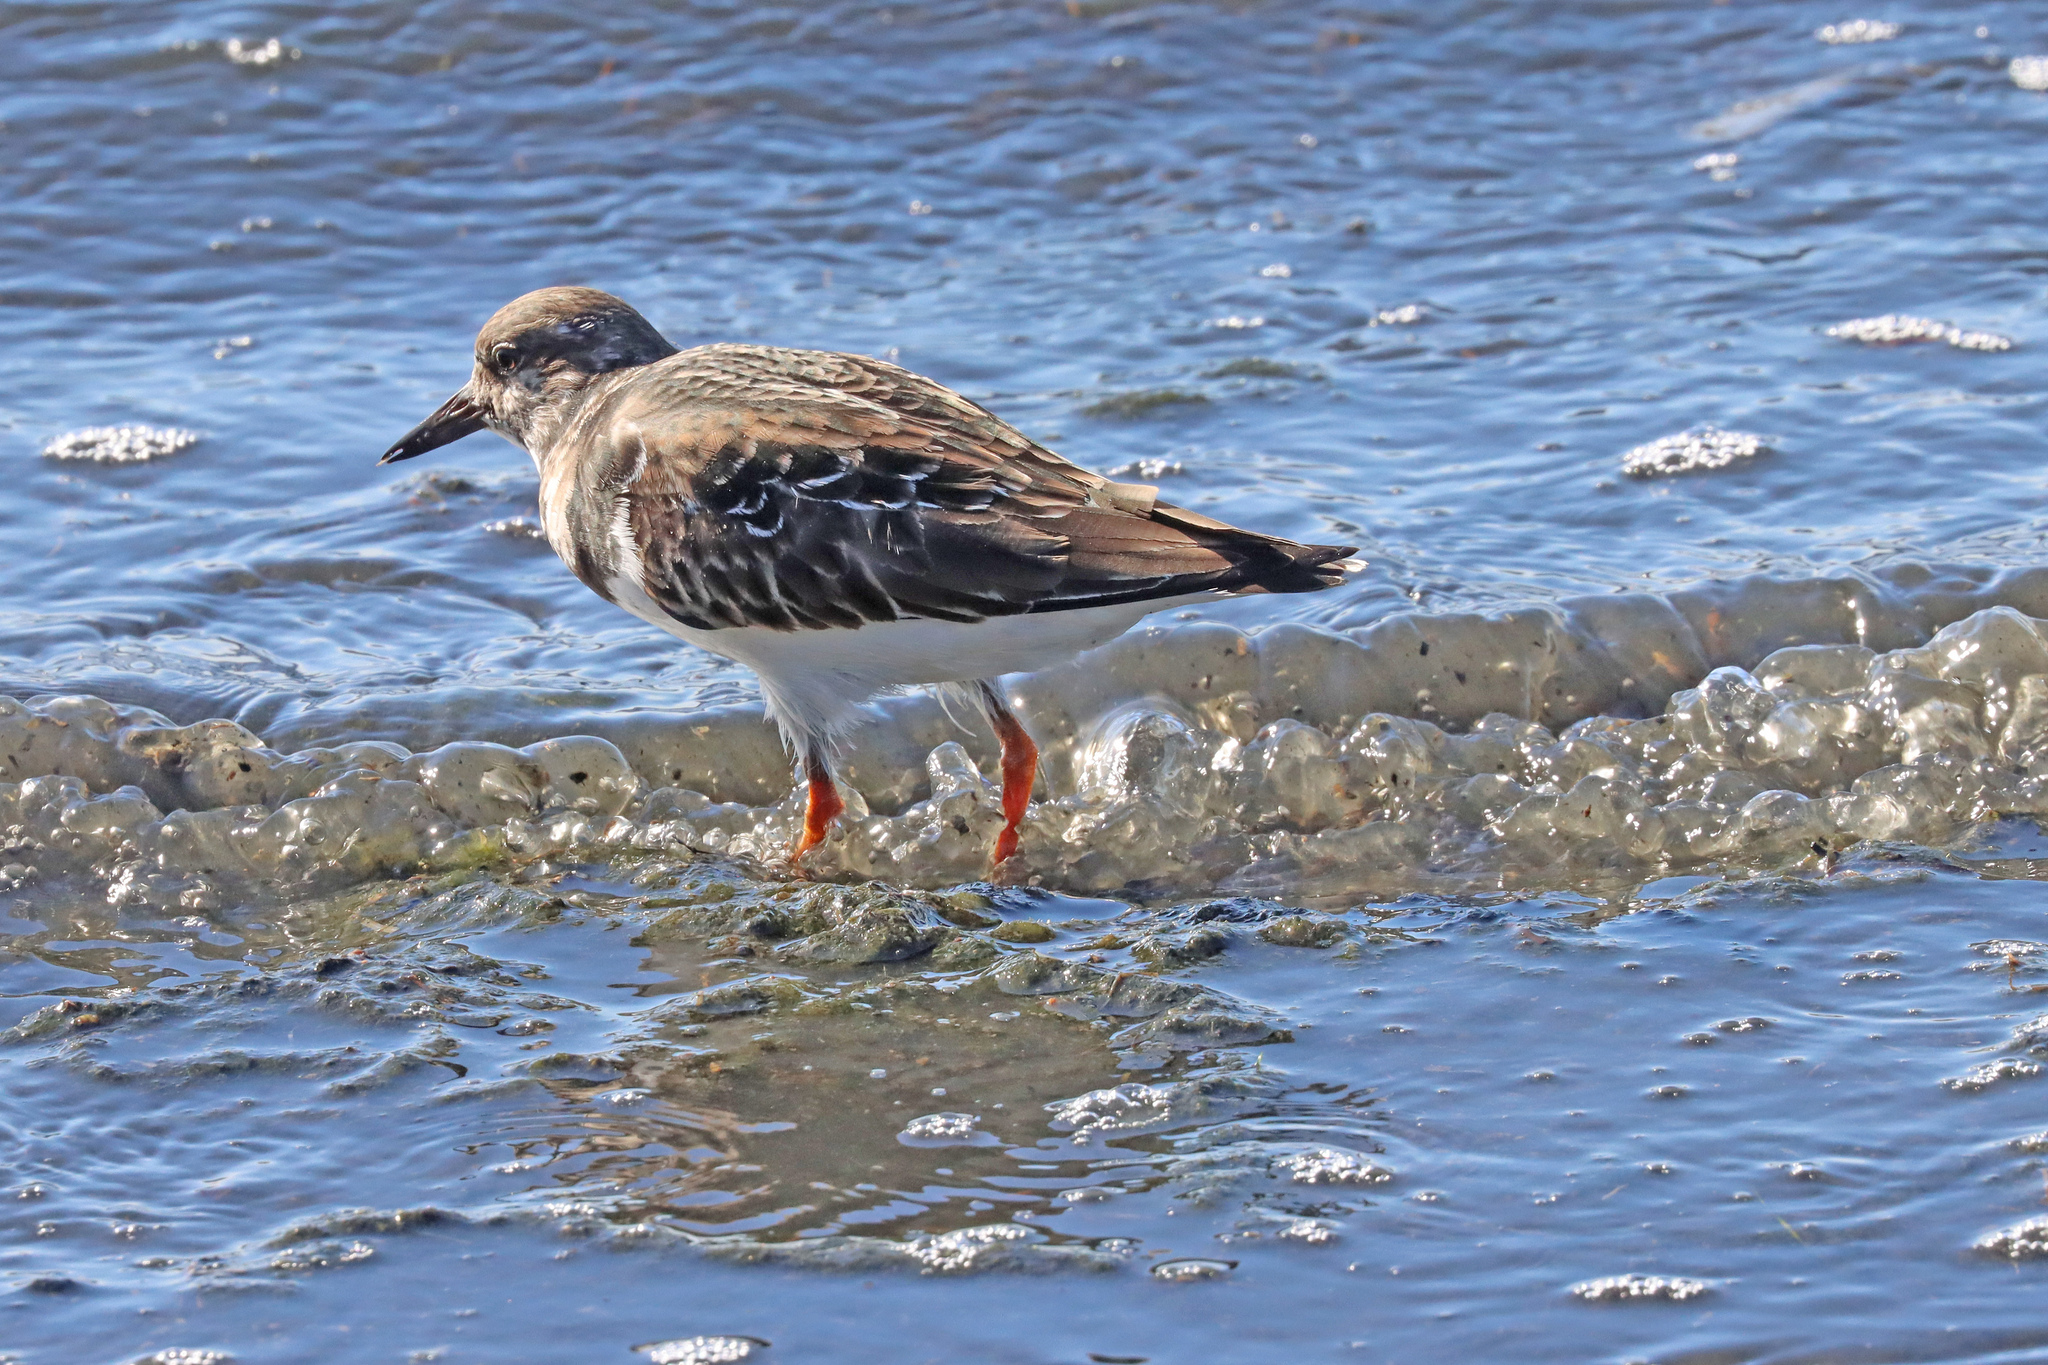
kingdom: Animalia
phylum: Chordata
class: Aves
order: Charadriiformes
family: Scolopacidae
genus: Arenaria
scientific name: Arenaria interpres
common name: Ruddy turnstone
